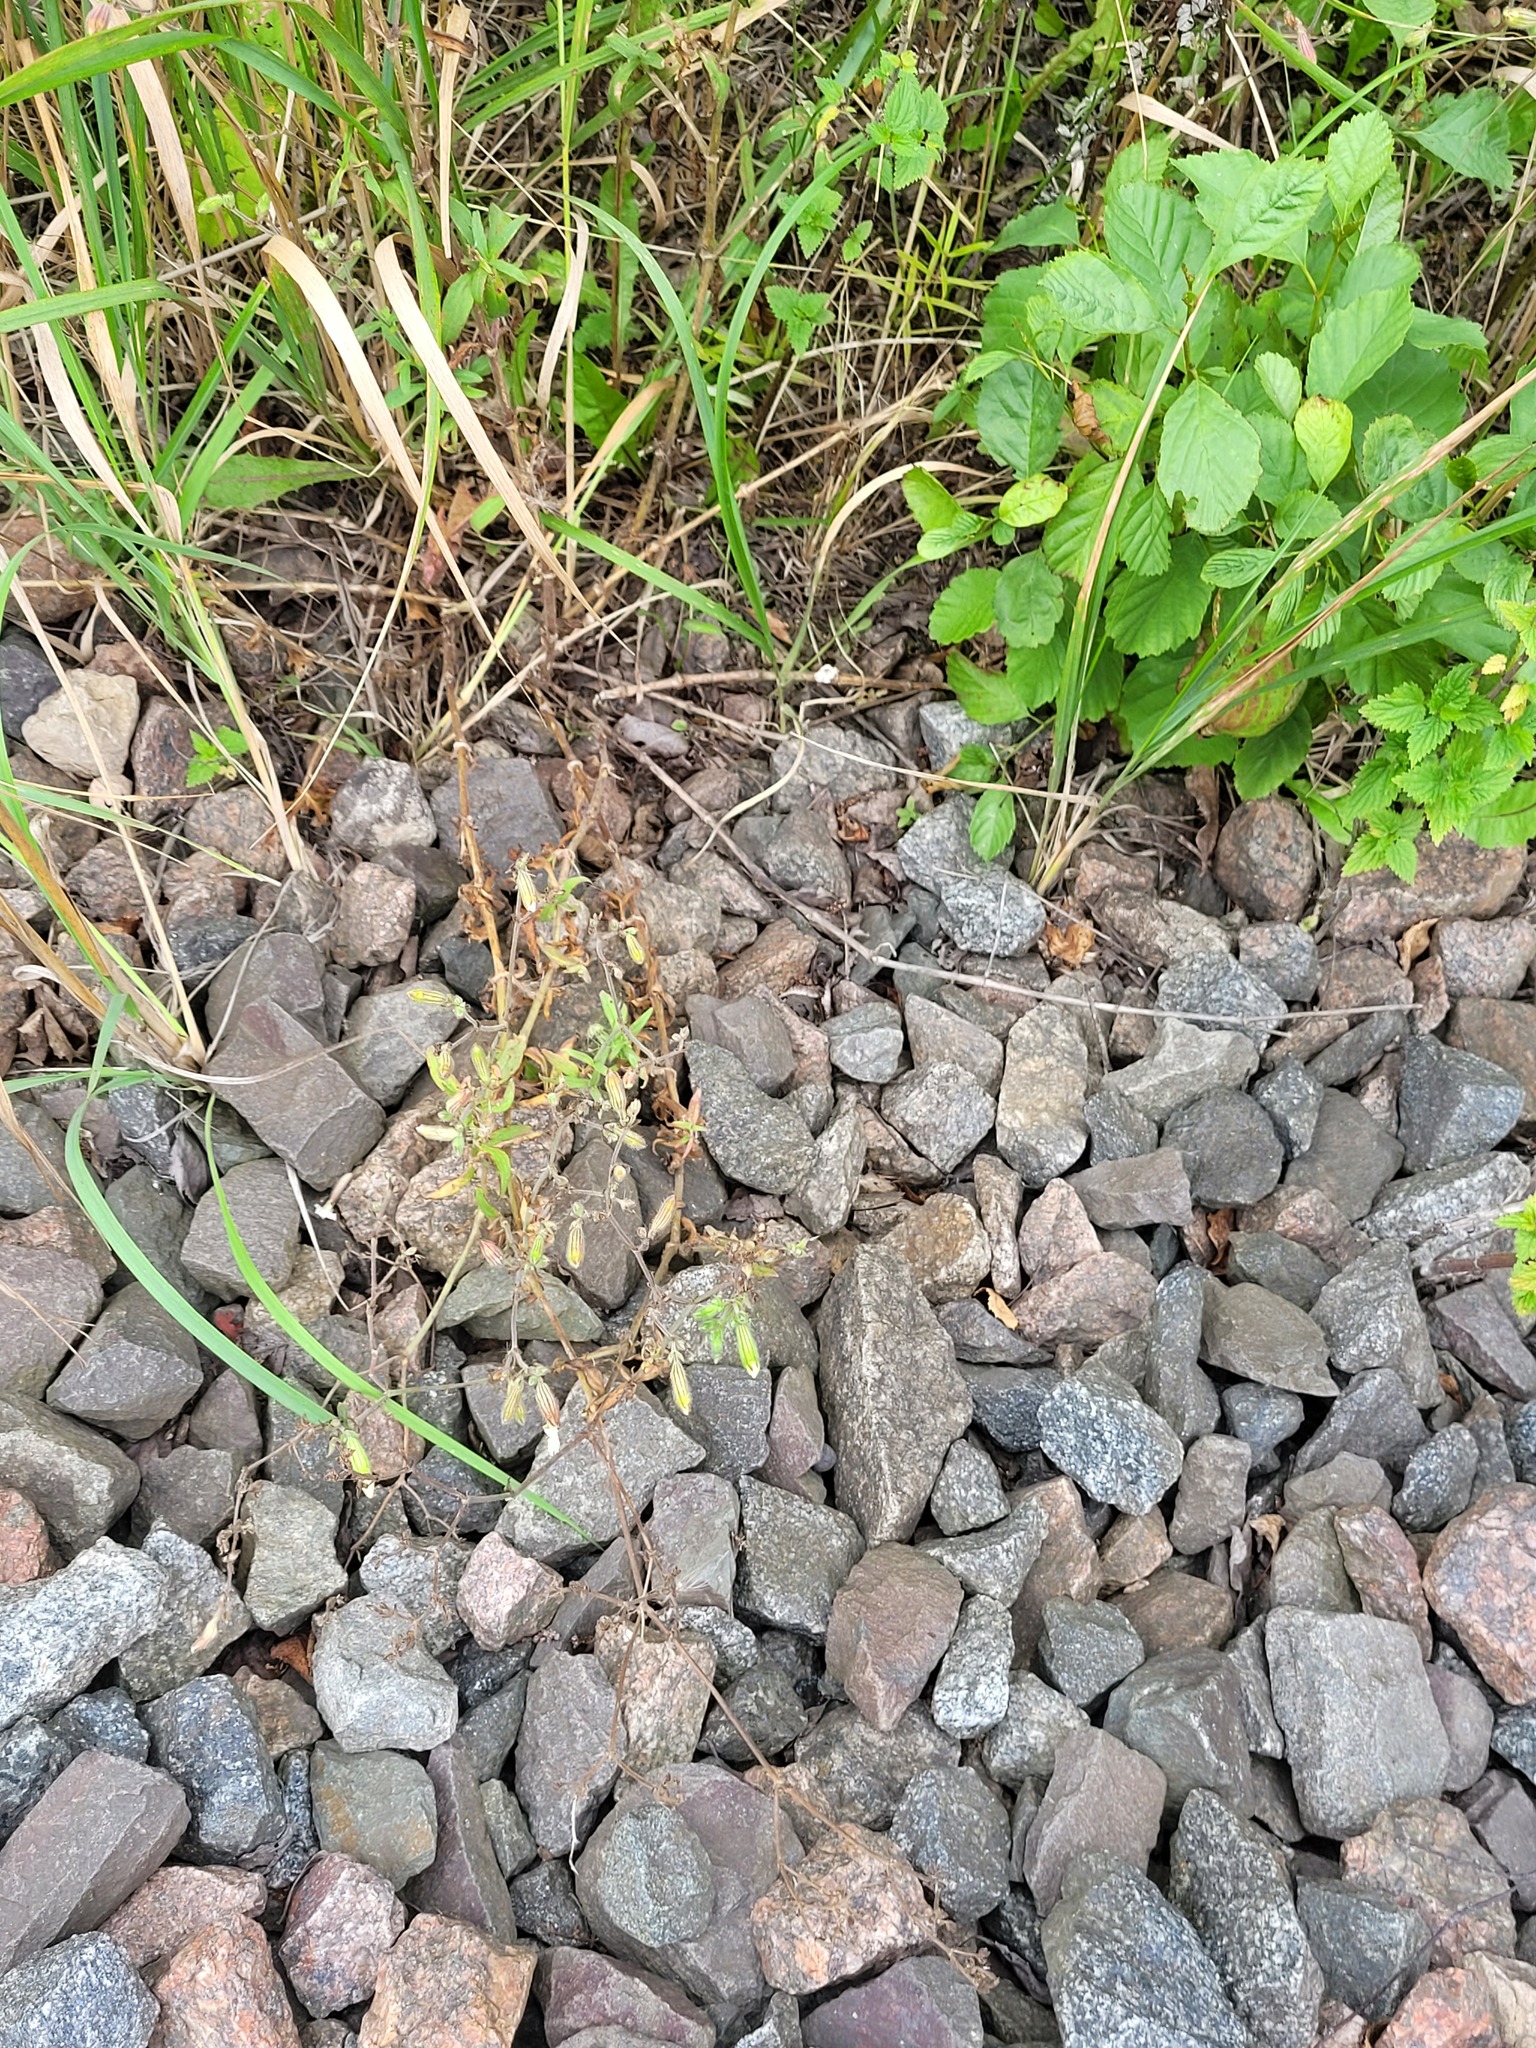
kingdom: Plantae
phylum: Tracheophyta
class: Magnoliopsida
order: Caryophyllales
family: Caryophyllaceae
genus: Silene
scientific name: Silene latifolia
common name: White campion
